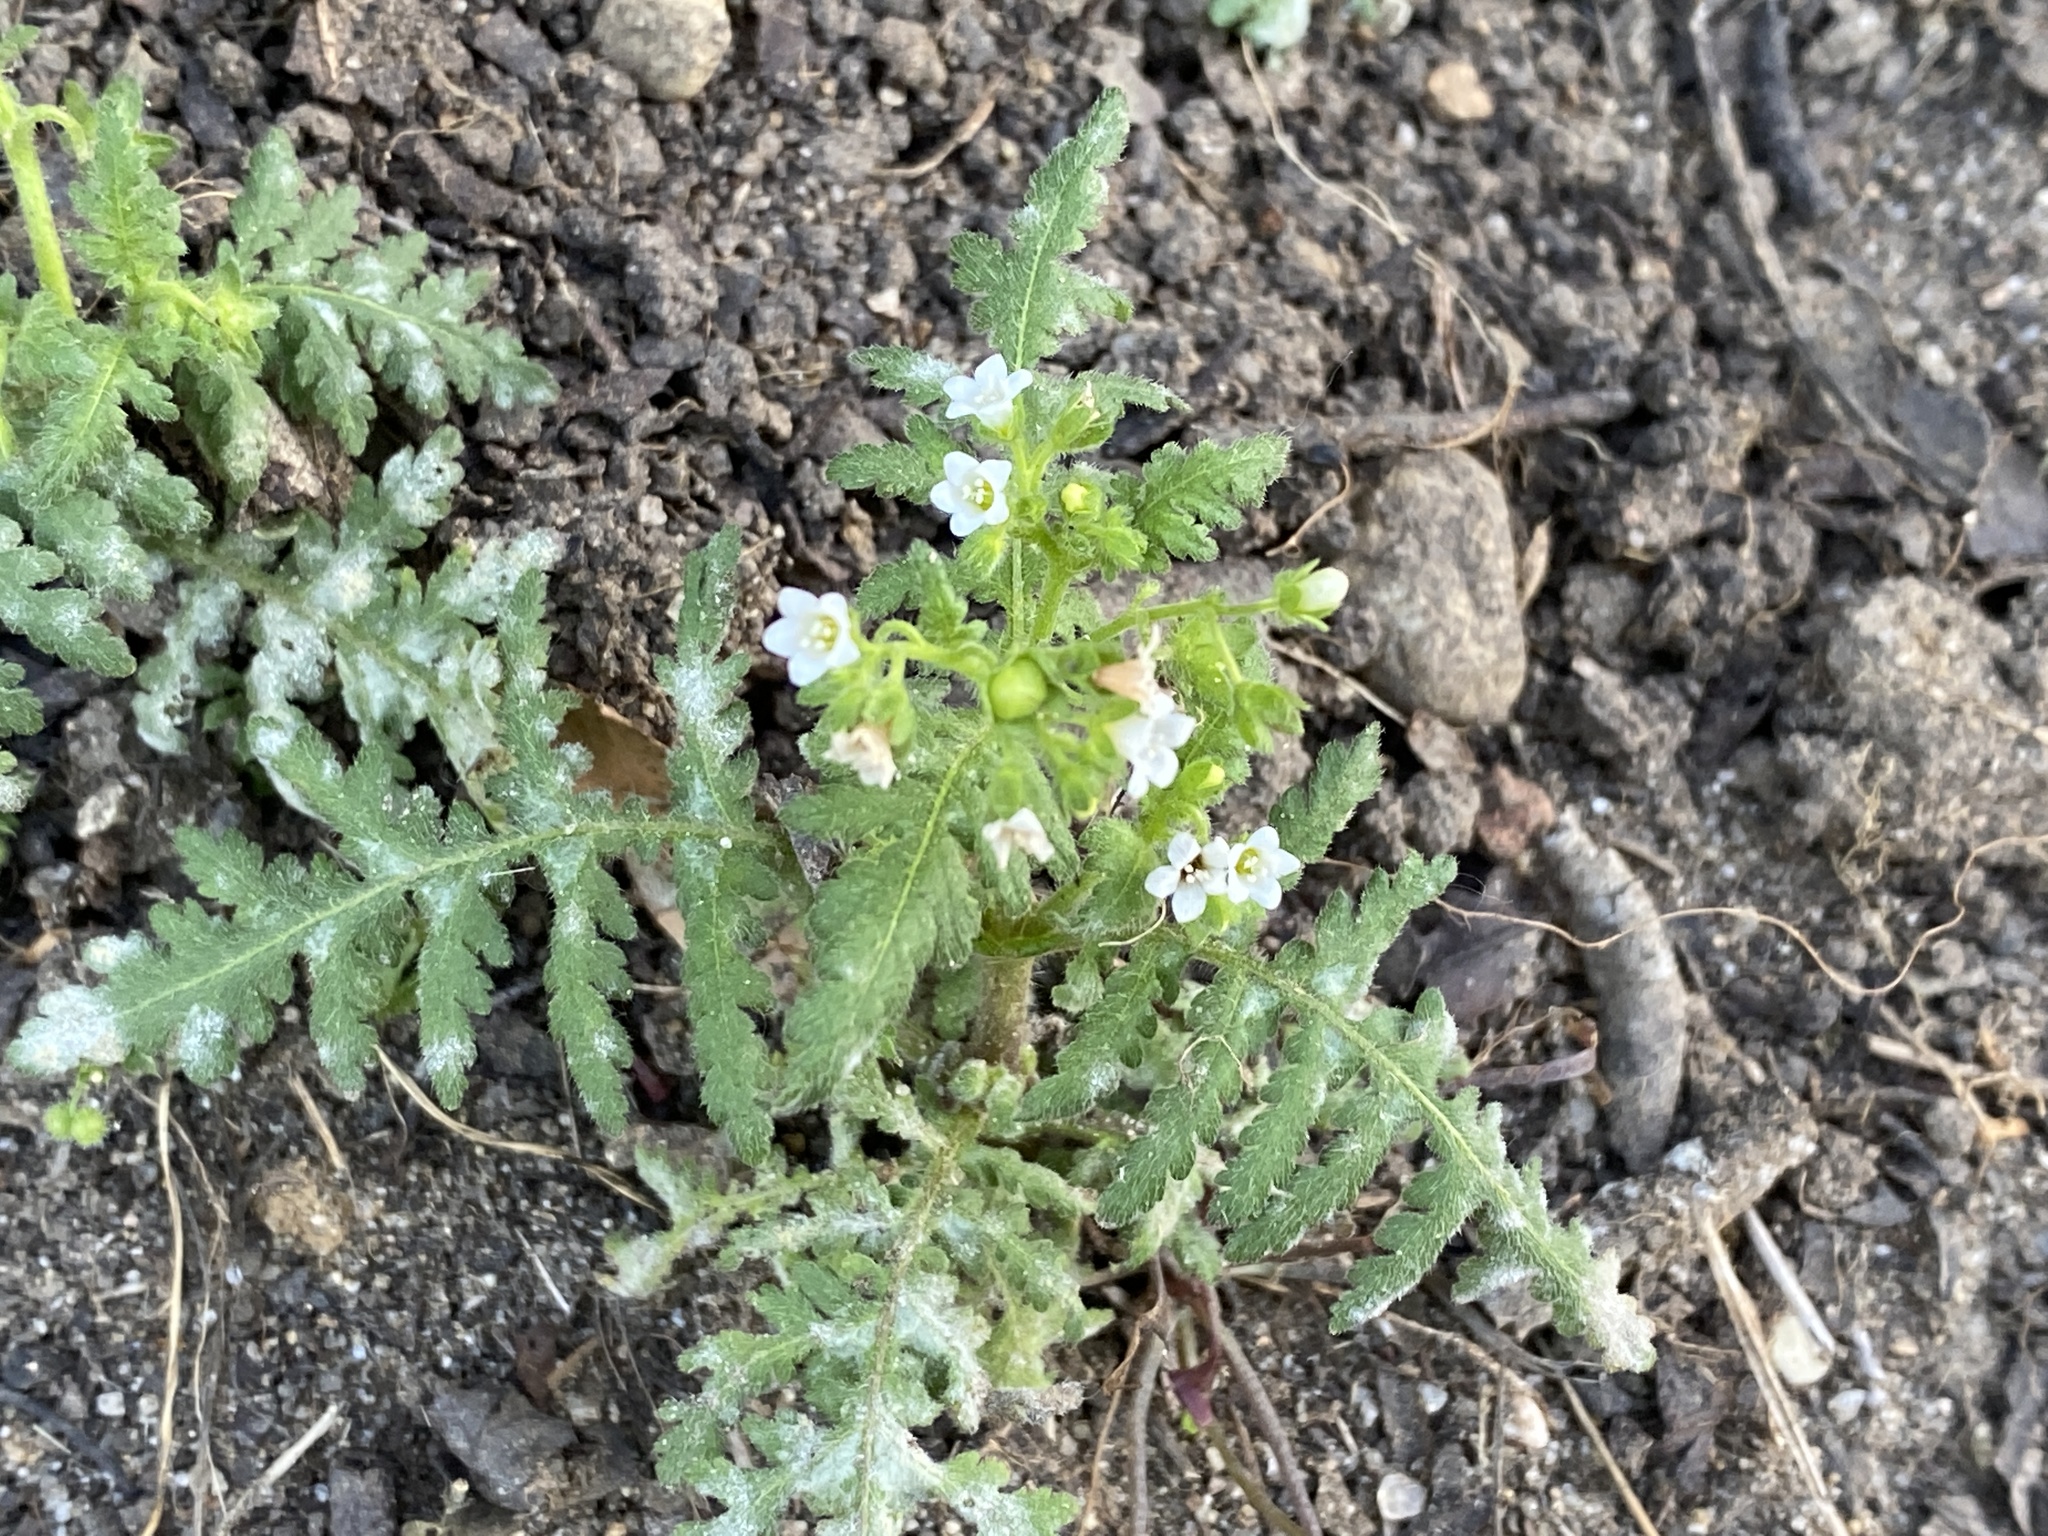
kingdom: Plantae
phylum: Tracheophyta
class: Magnoliopsida
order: Boraginales
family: Hydrophyllaceae
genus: Eucrypta
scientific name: Eucrypta chrysanthemifolia
